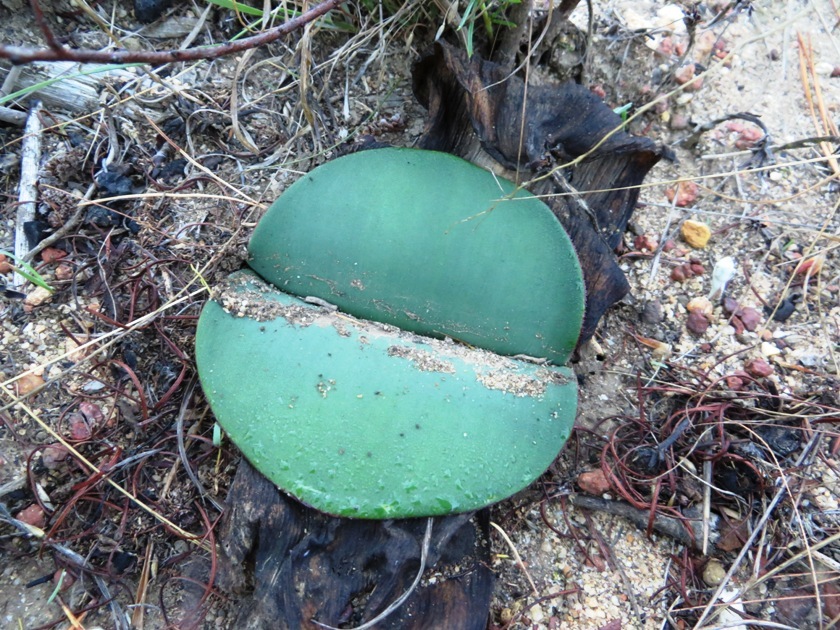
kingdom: Plantae
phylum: Tracheophyta
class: Liliopsida
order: Asparagales
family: Amaryllidaceae
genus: Haemanthus
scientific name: Haemanthus sanguineus
